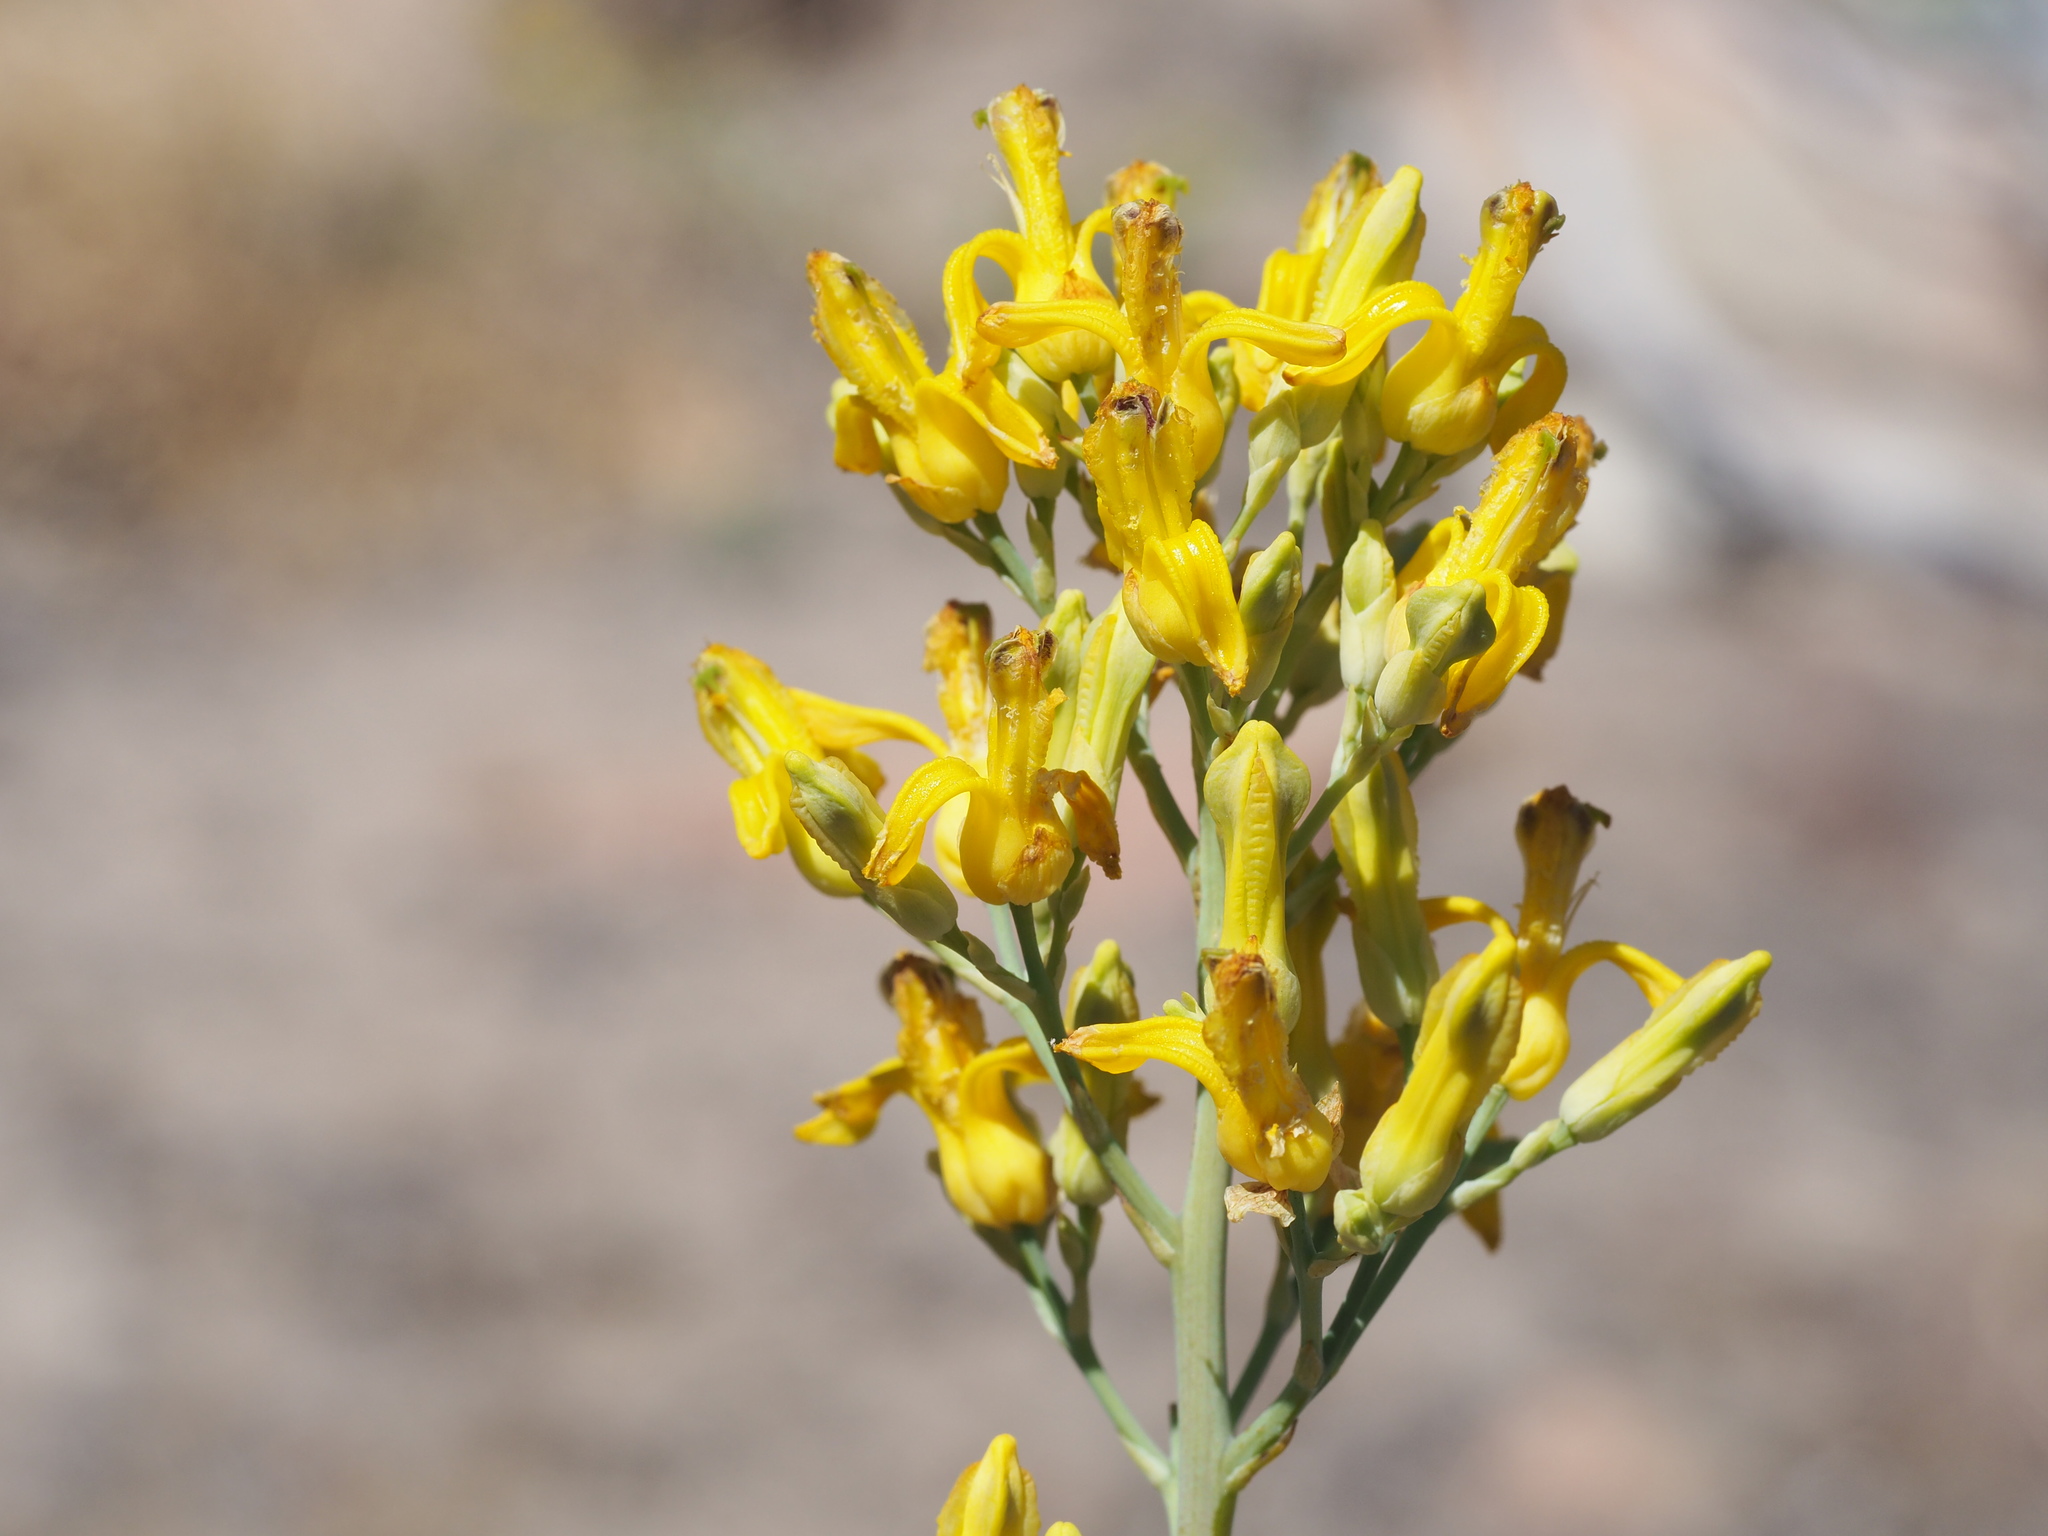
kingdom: Plantae
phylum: Tracheophyta
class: Magnoliopsida
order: Ranunculales
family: Papaveraceae
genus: Ehrendorferia
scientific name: Ehrendorferia chrysantha
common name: Golden eardrops
